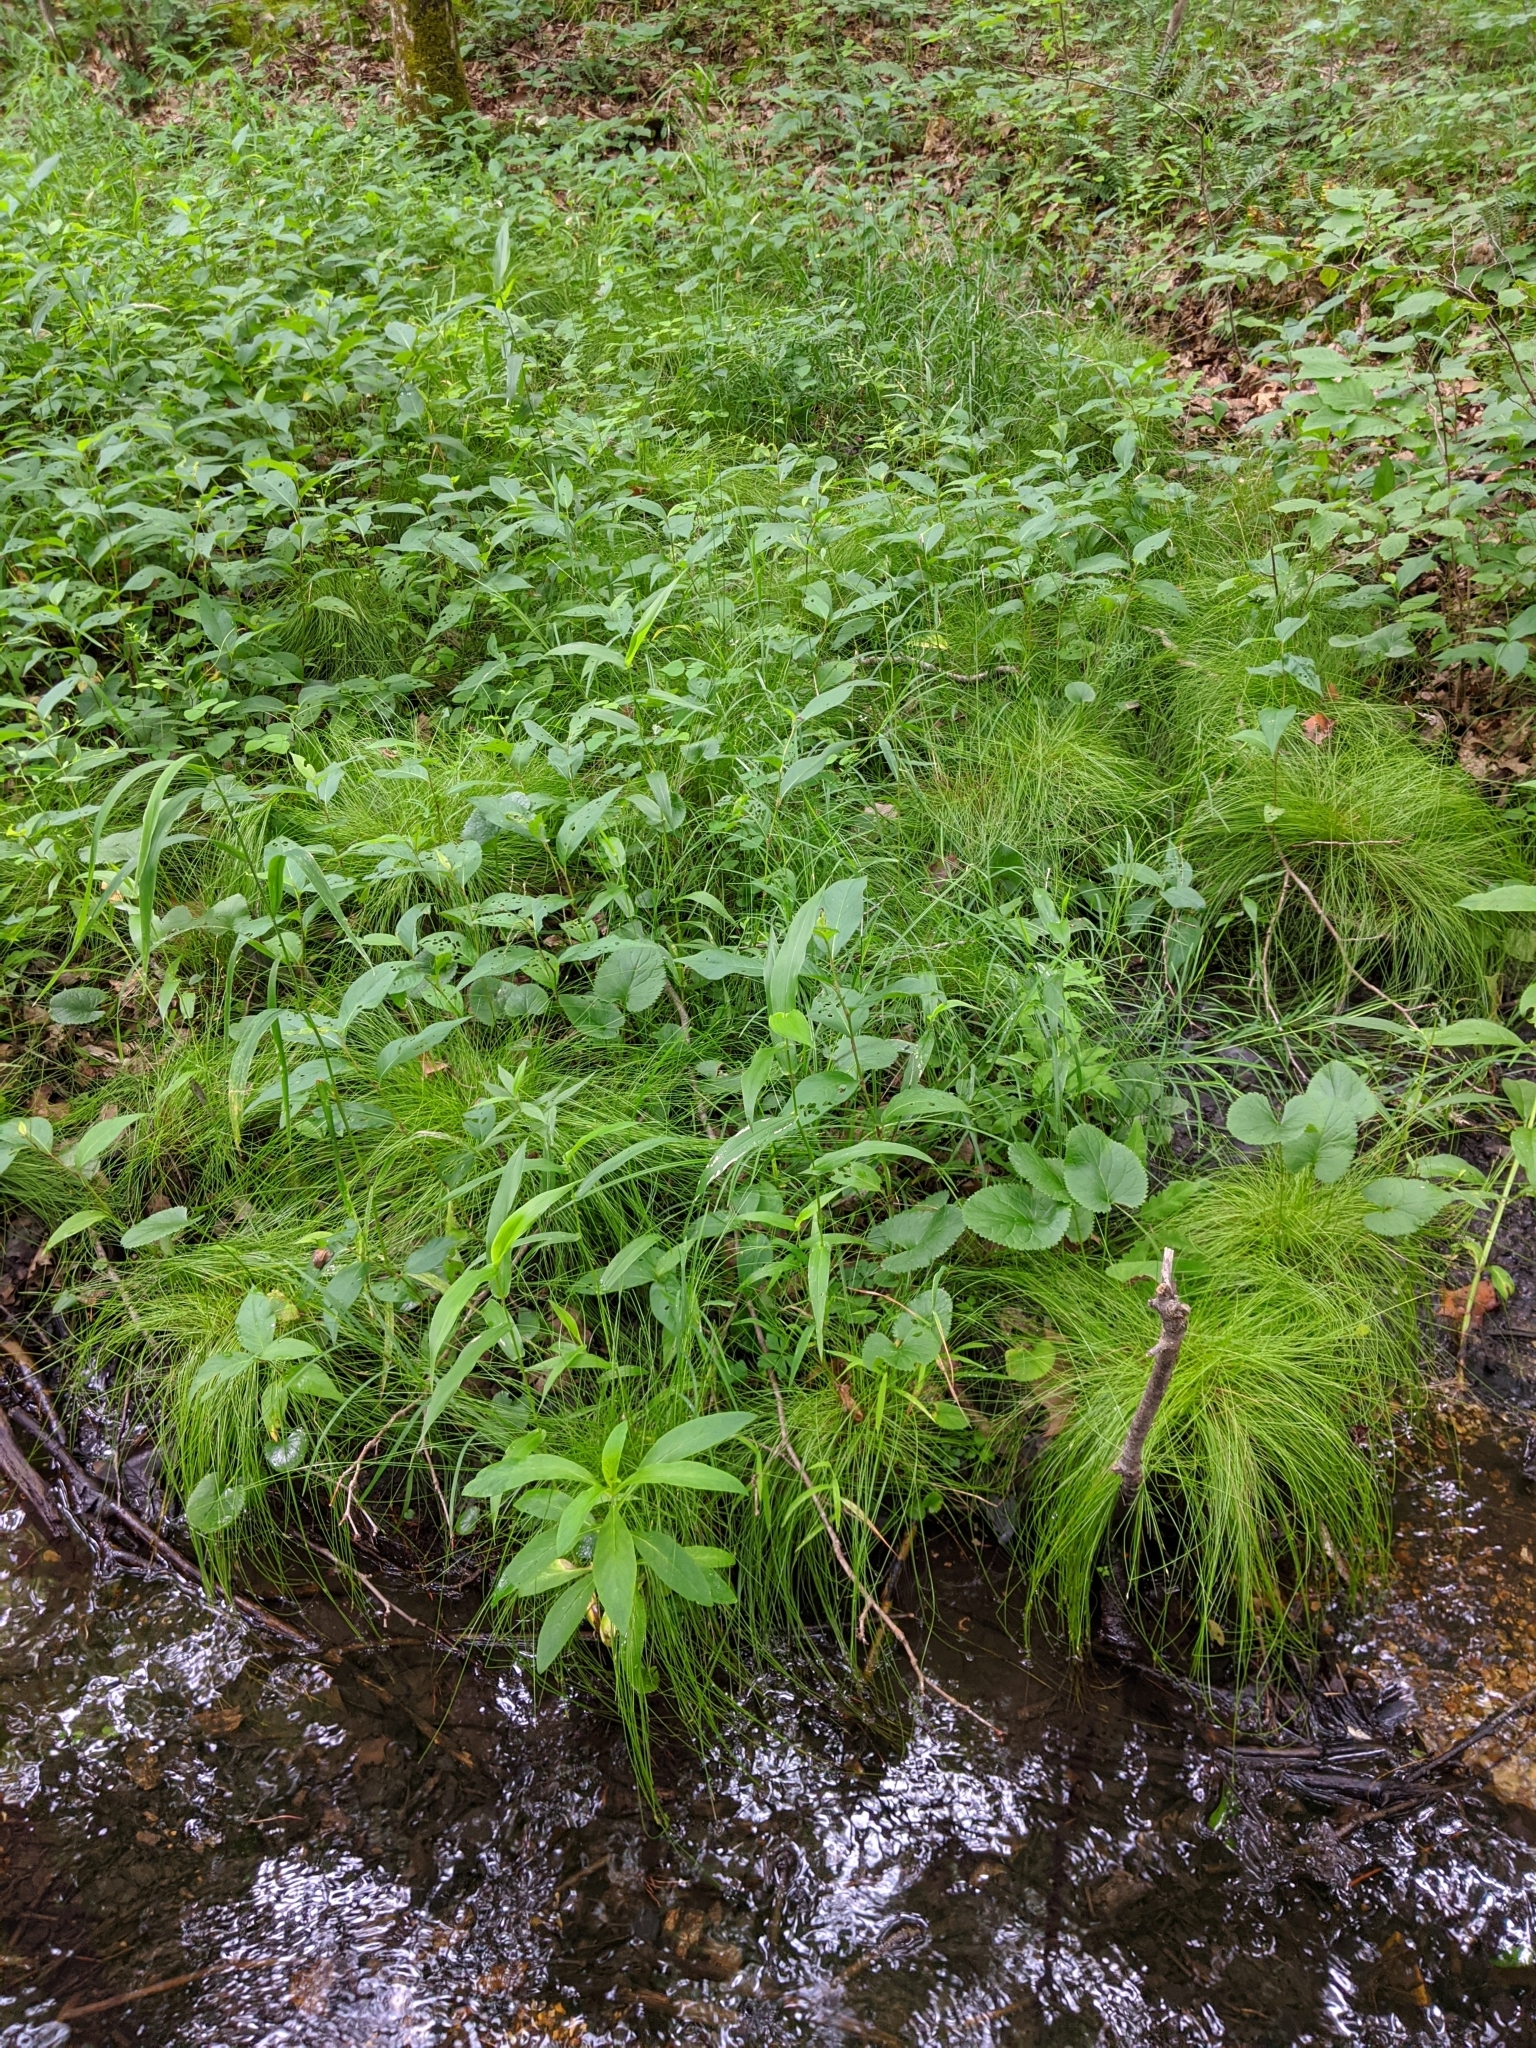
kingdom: Plantae
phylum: Tracheophyta
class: Liliopsida
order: Poales
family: Cyperaceae
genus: Carex
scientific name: Carex leptalea
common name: Bristly-stalked sedge
